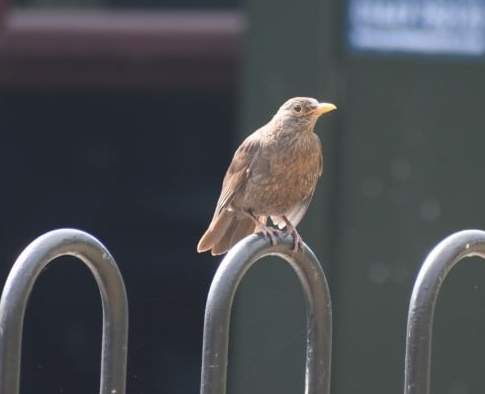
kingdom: Animalia
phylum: Chordata
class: Aves
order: Passeriformes
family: Turdidae
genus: Turdus
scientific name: Turdus merula
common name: Common blackbird
